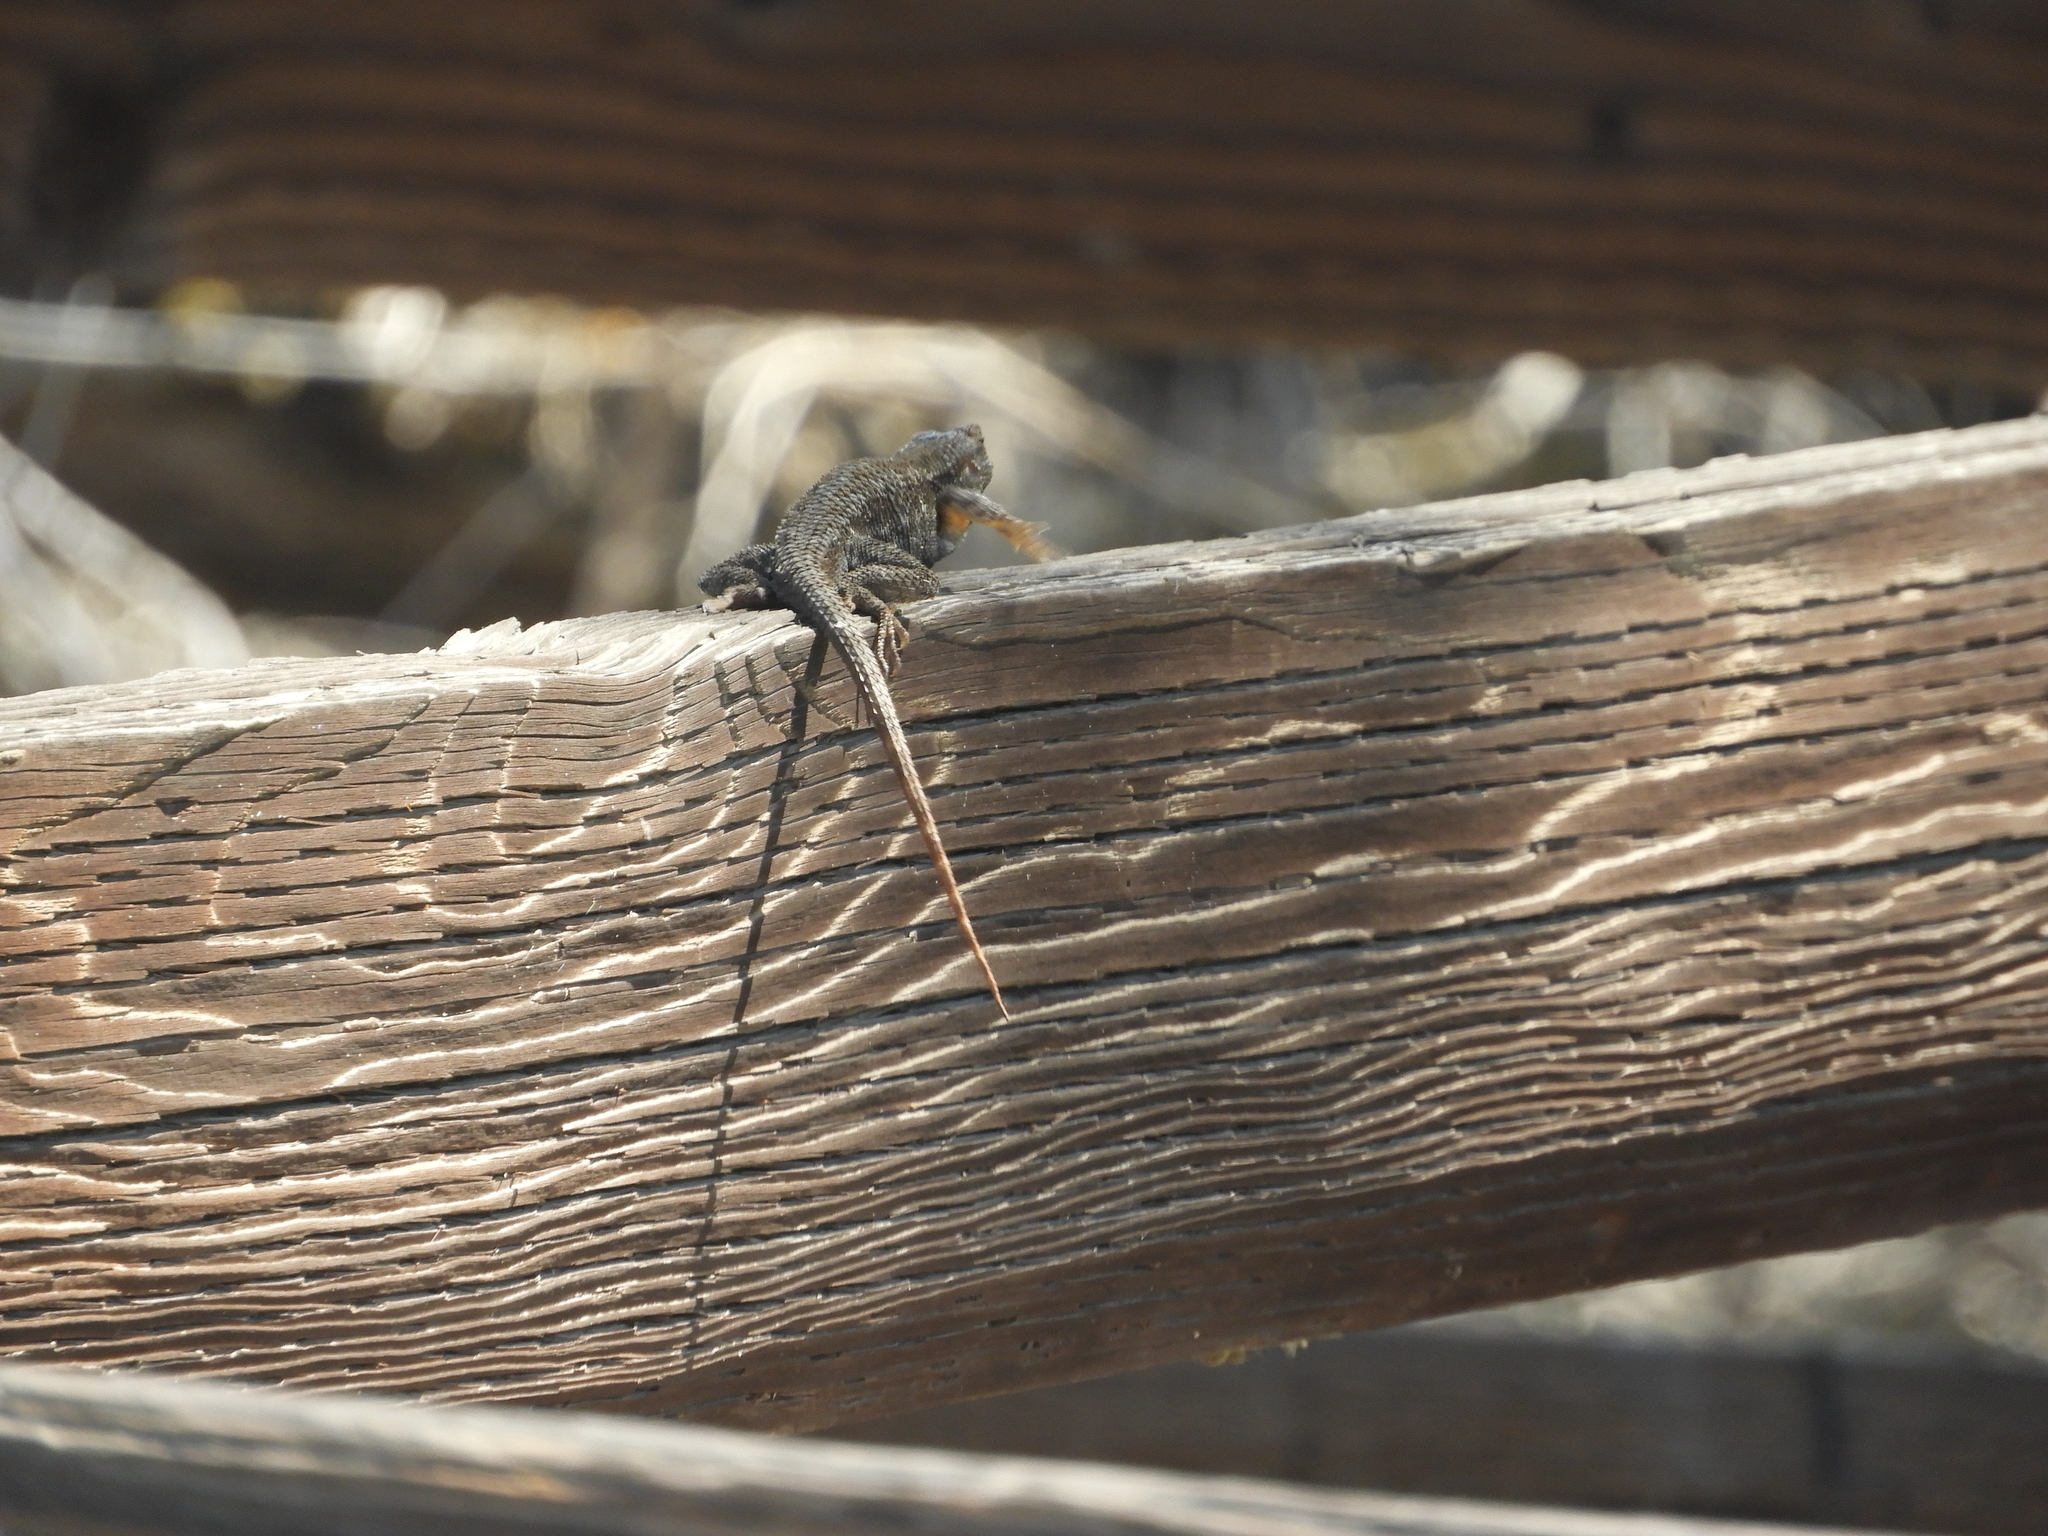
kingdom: Animalia
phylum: Chordata
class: Squamata
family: Phrynosomatidae
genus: Sceloporus
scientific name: Sceloporus occidentalis
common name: Western fence lizard
